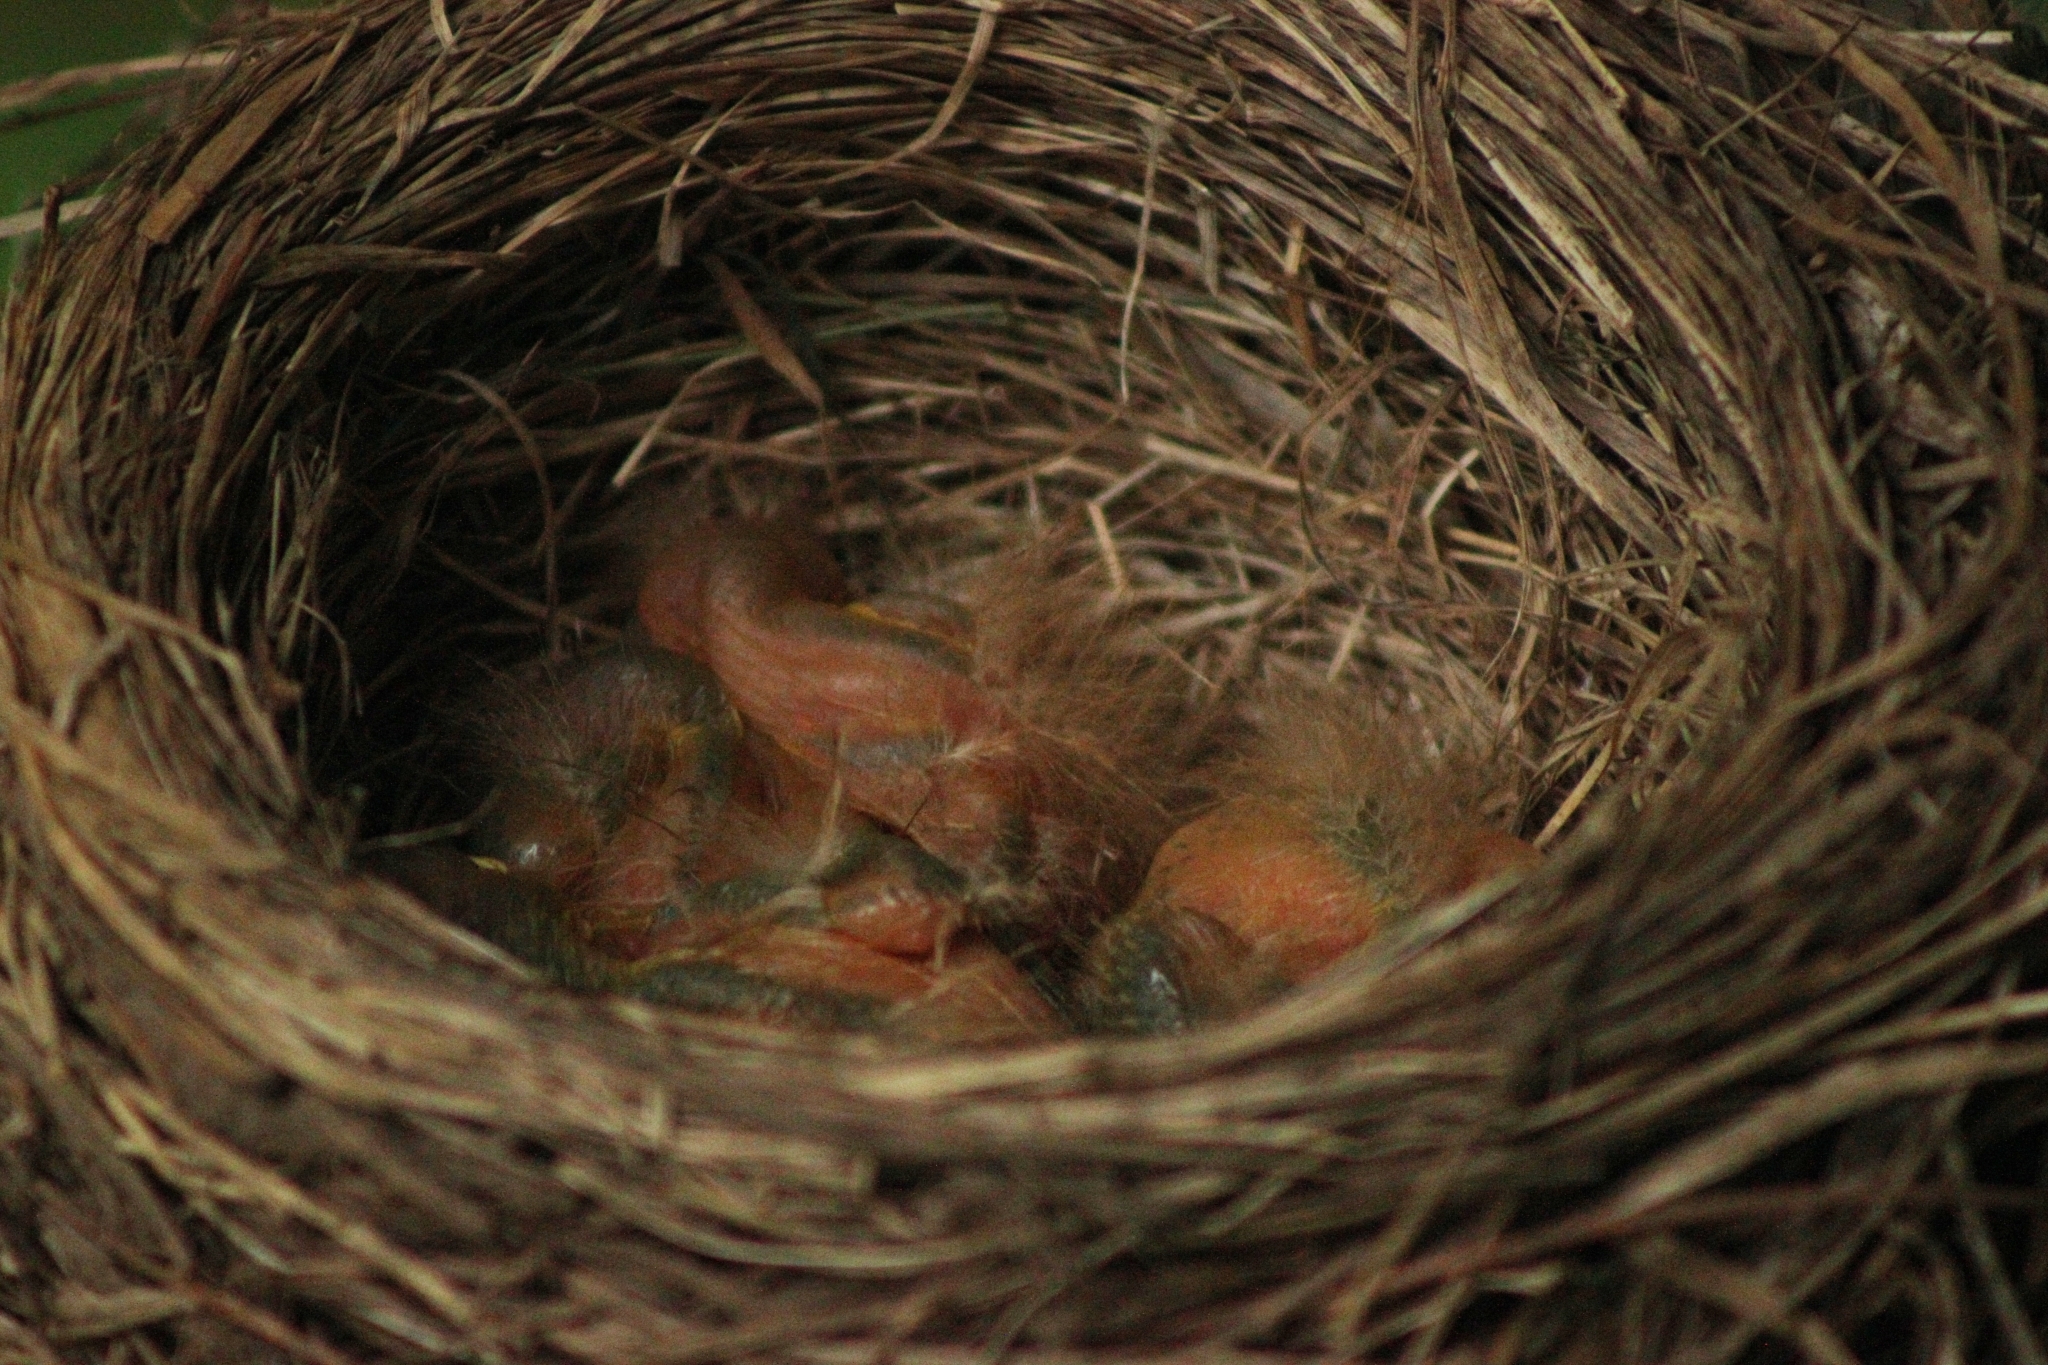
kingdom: Animalia
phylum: Chordata
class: Aves
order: Passeriformes
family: Turdidae
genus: Turdus
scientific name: Turdus pilaris
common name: Fieldfare
